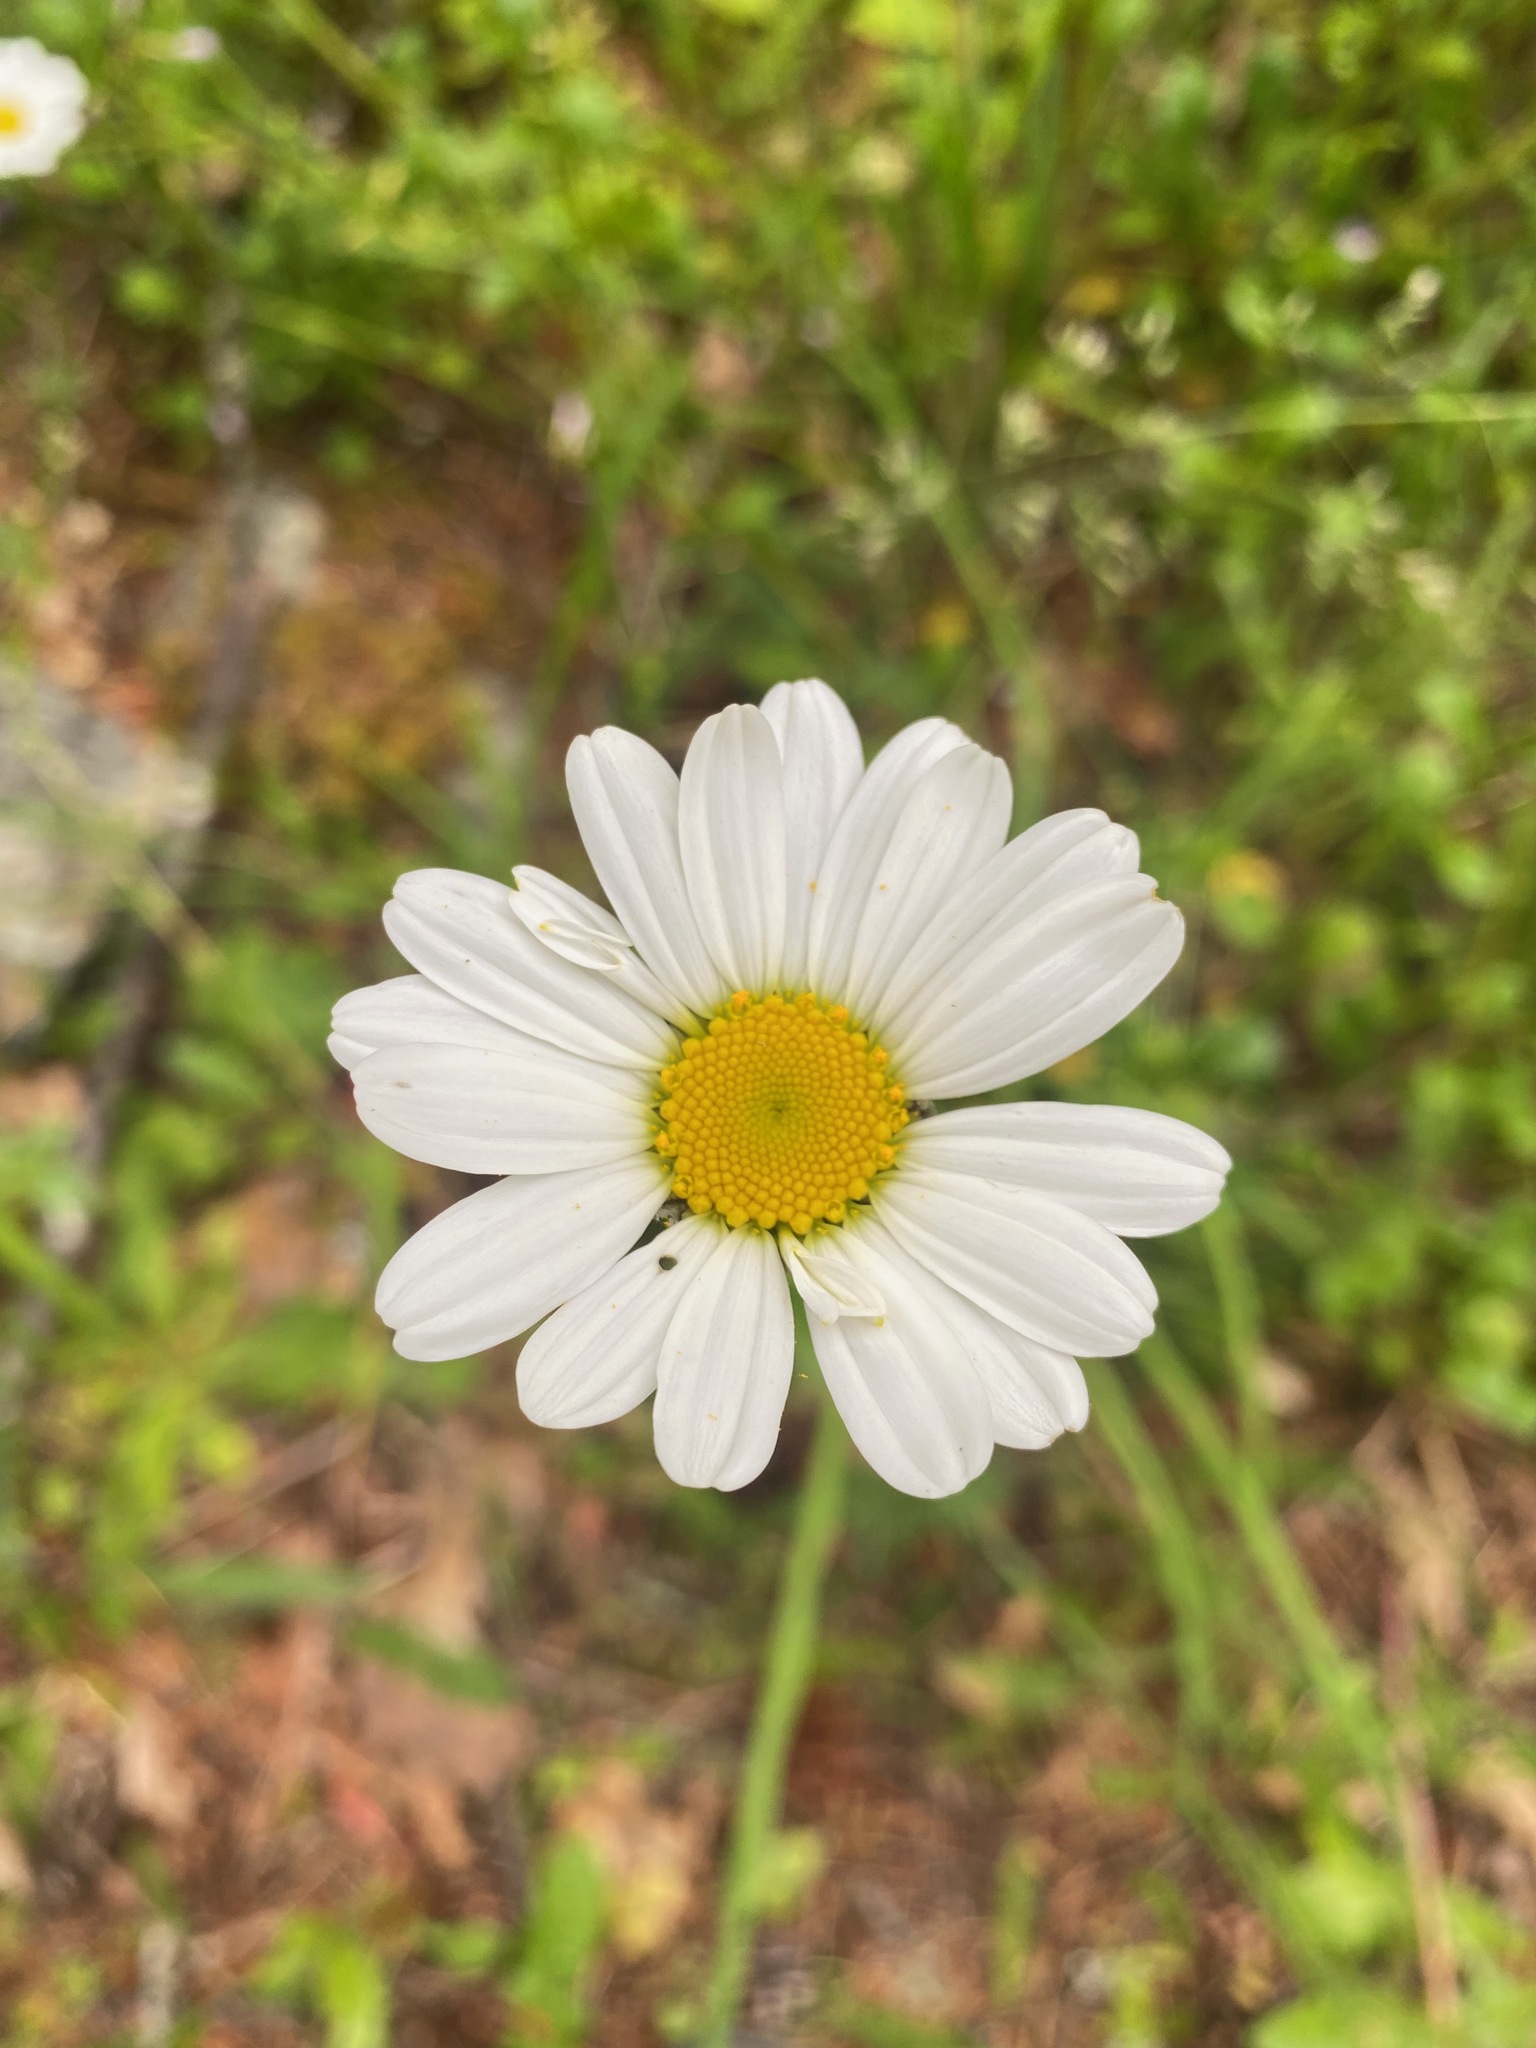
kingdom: Plantae
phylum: Tracheophyta
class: Magnoliopsida
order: Asterales
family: Asteraceae
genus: Leucanthemum
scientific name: Leucanthemum vulgare
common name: Oxeye daisy
